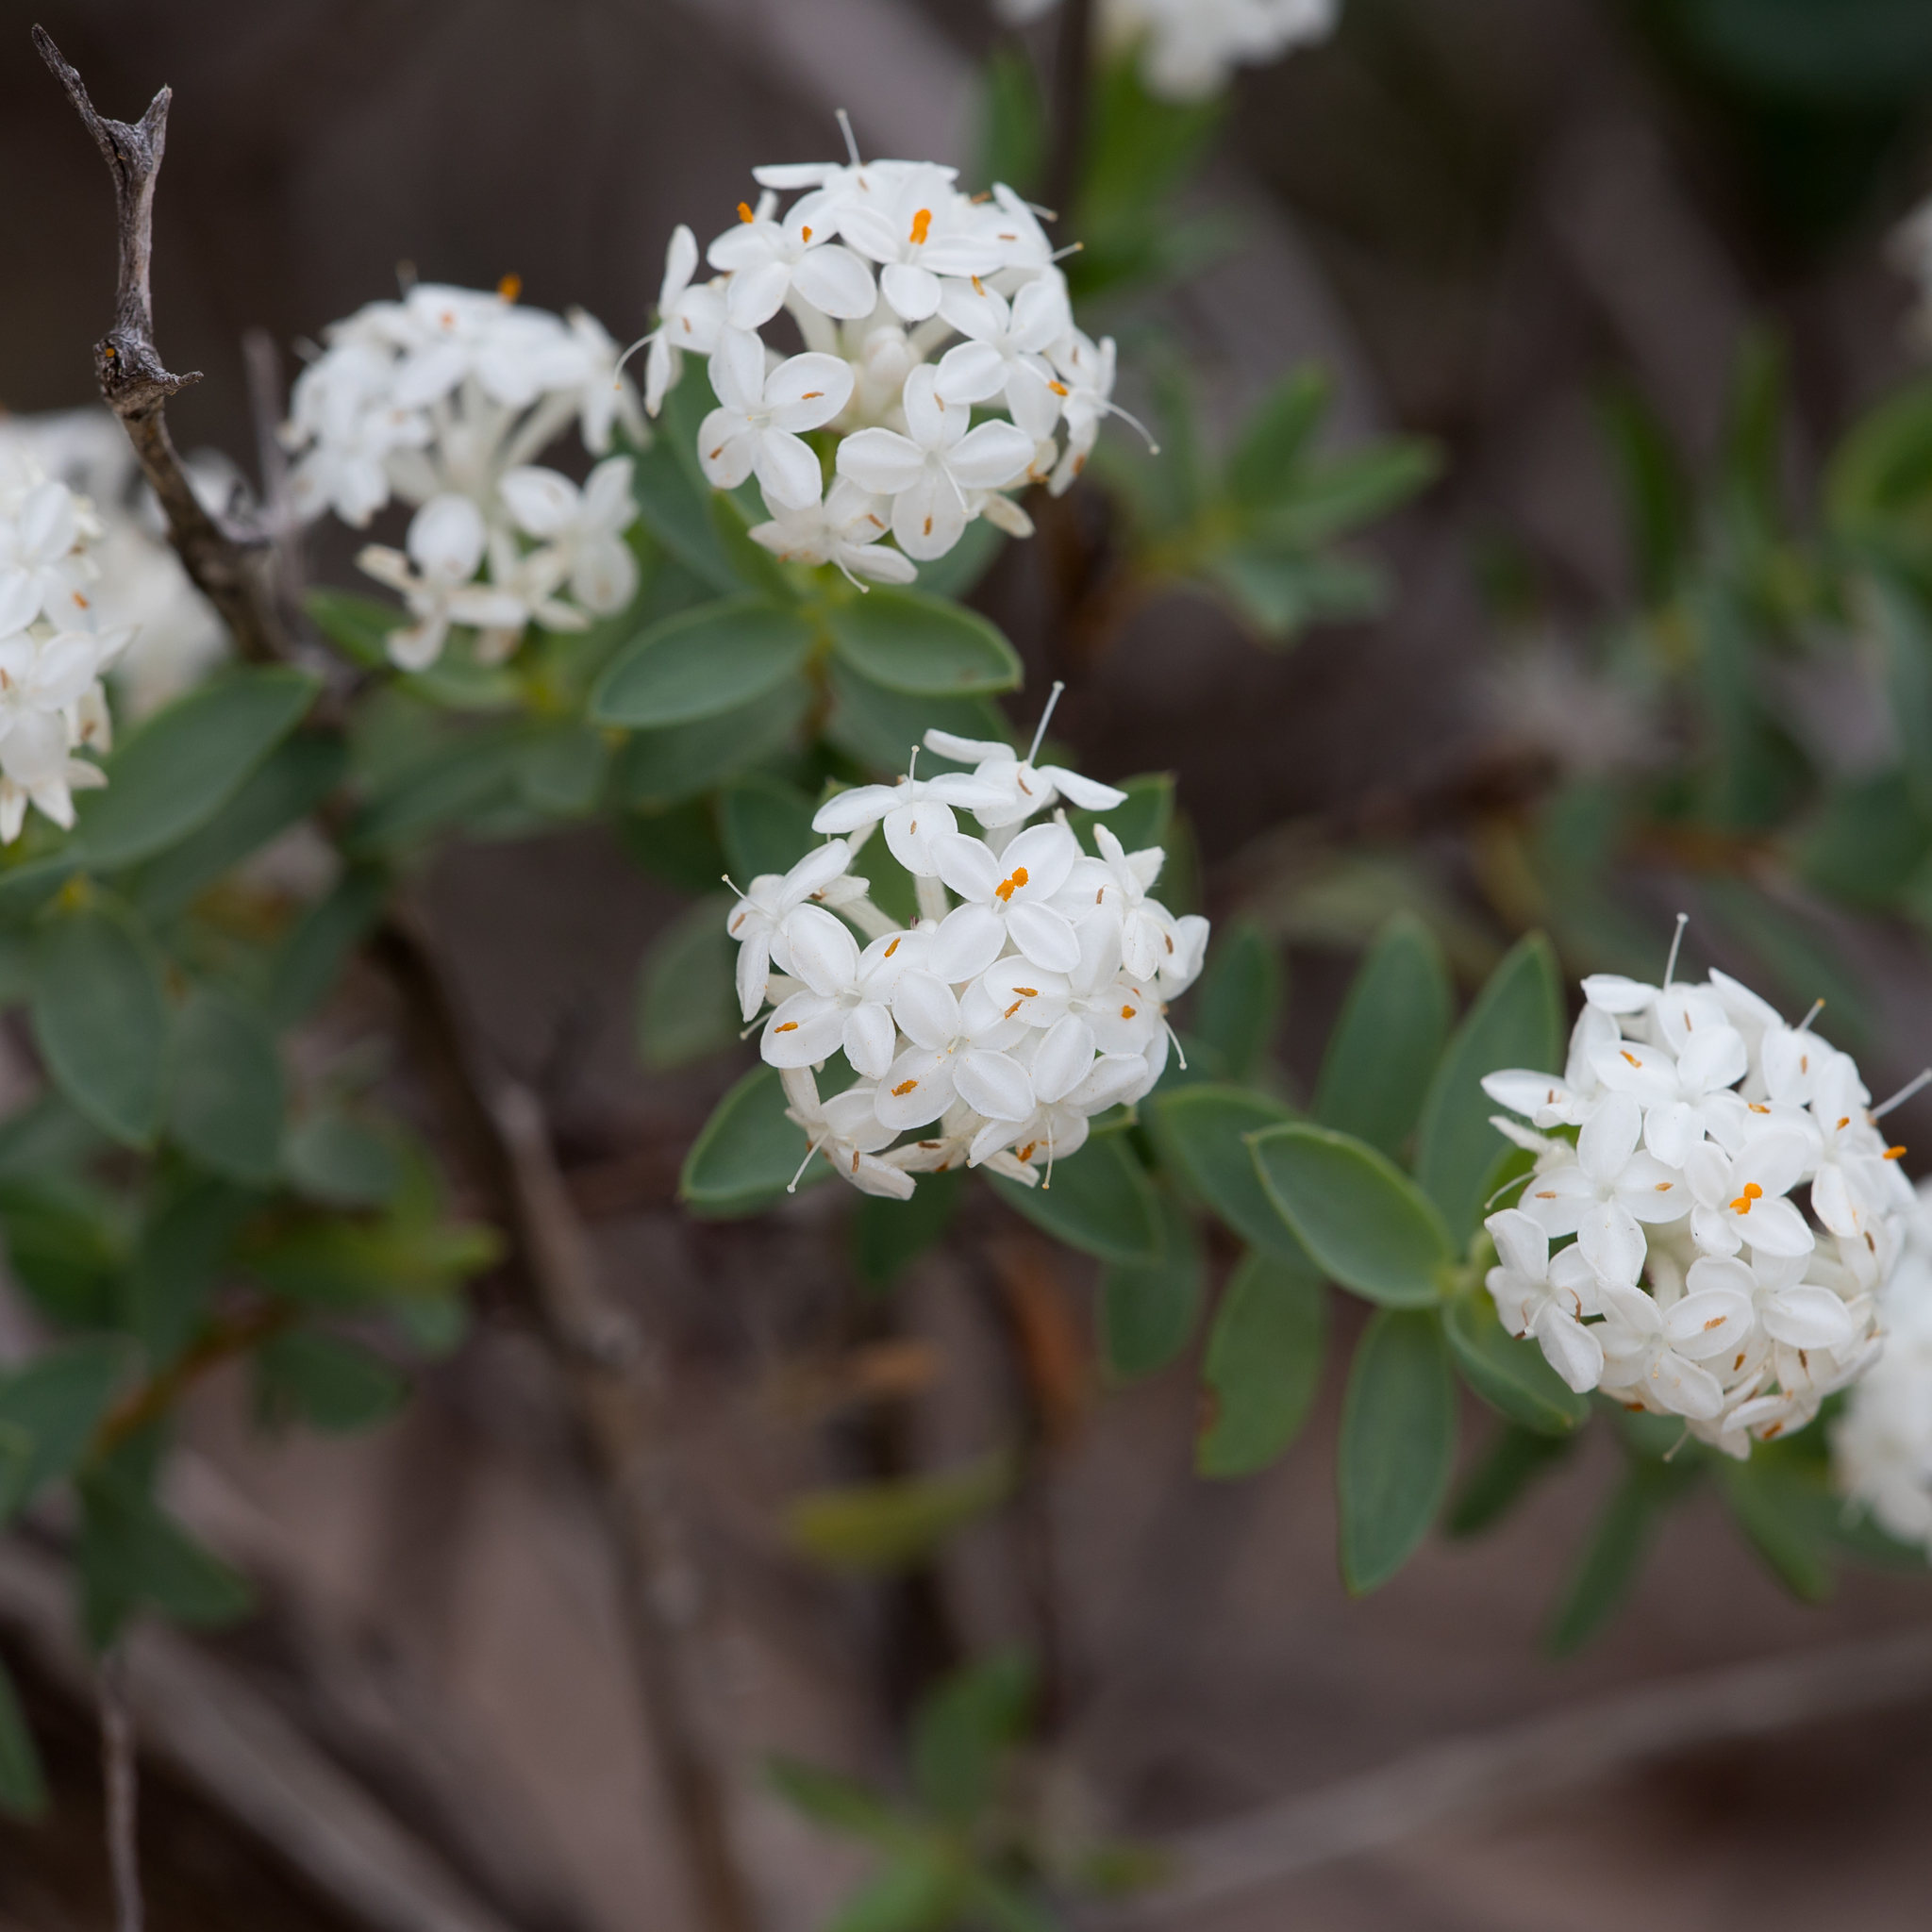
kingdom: Plantae
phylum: Tracheophyta
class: Magnoliopsida
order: Malvales
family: Thymelaeaceae
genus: Pimelea
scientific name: Pimelea glauca
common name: Smooth riceflower
